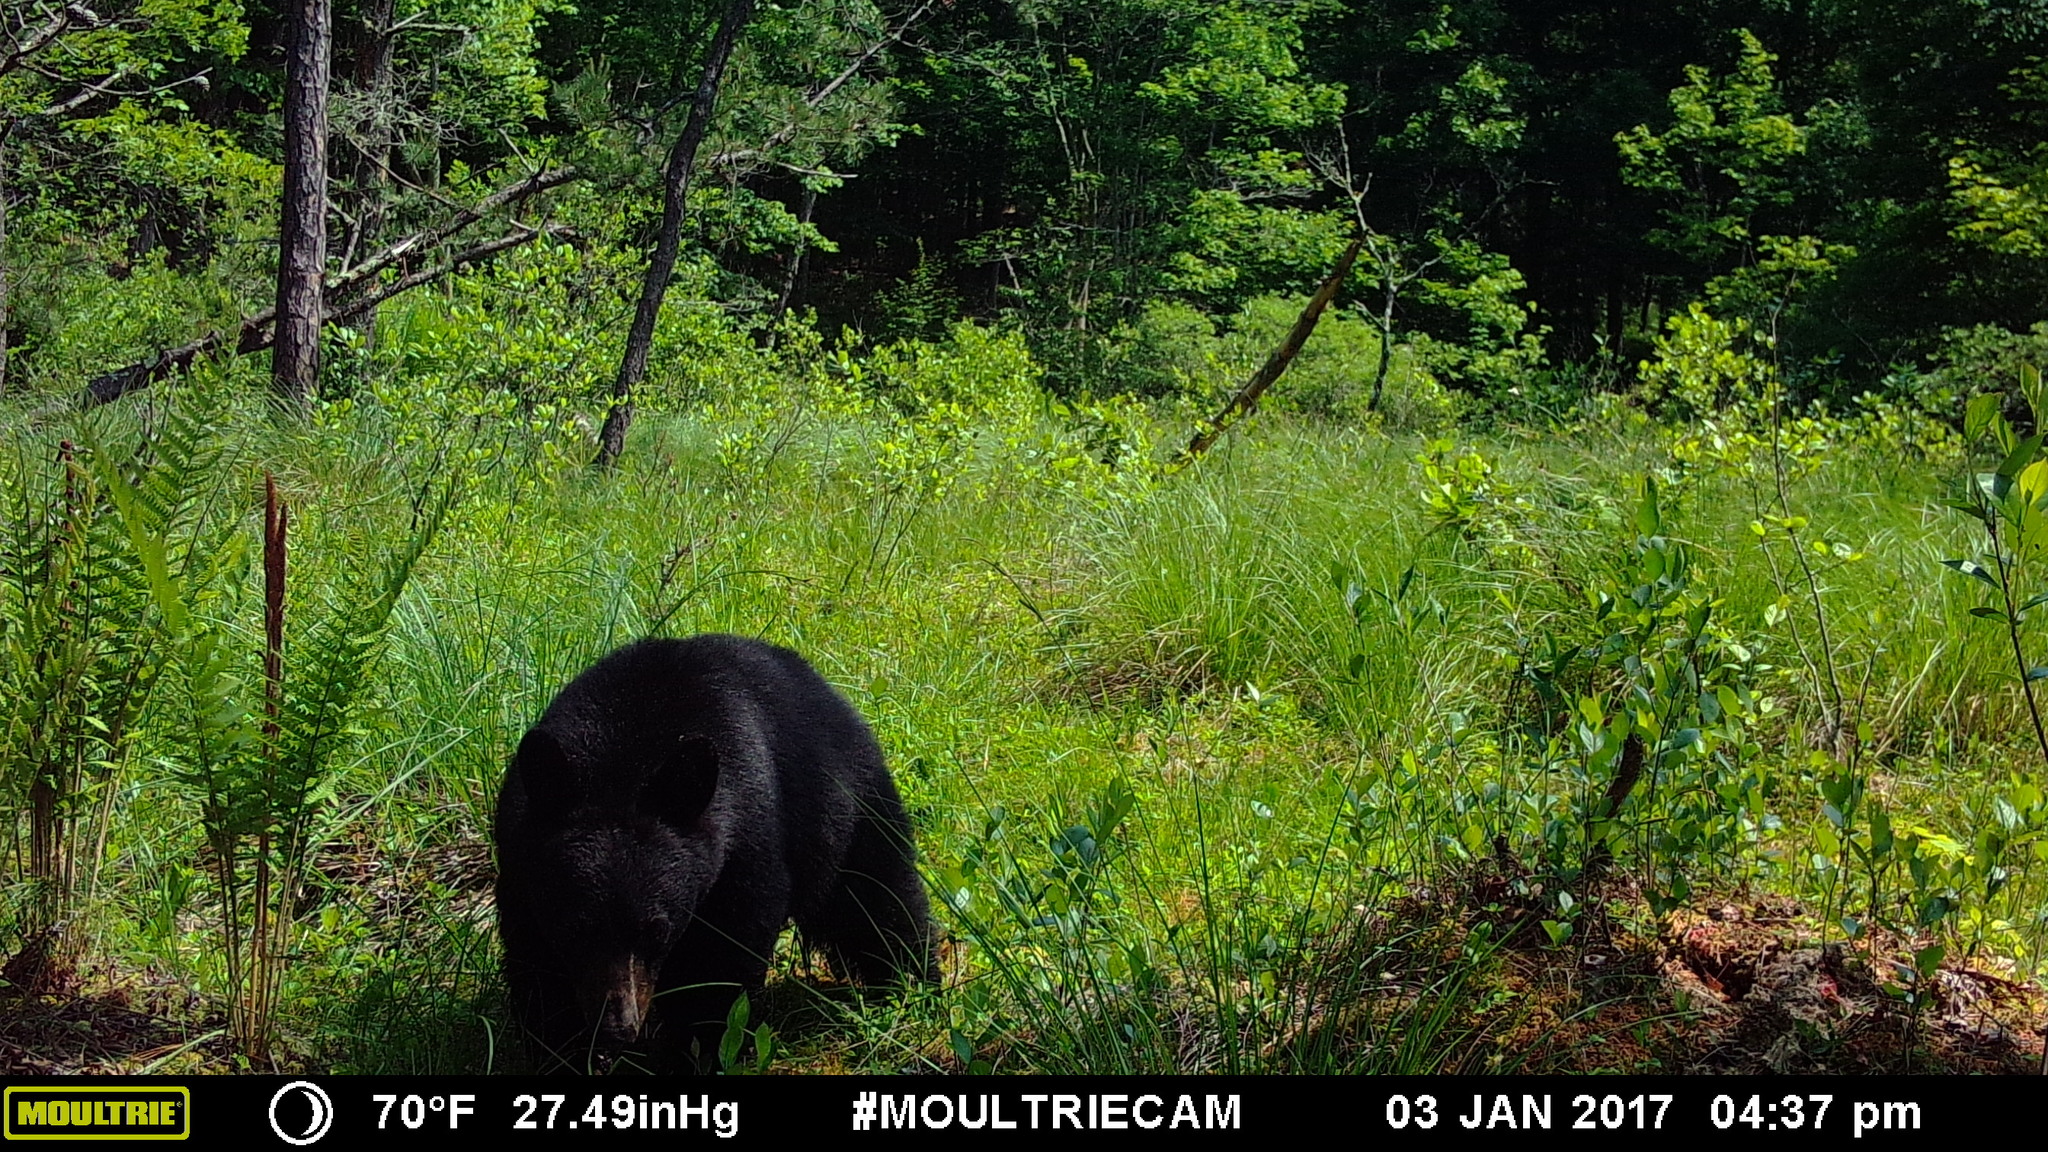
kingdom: Animalia
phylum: Chordata
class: Mammalia
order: Carnivora
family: Ursidae
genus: Ursus
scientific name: Ursus americanus
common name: American black bear
